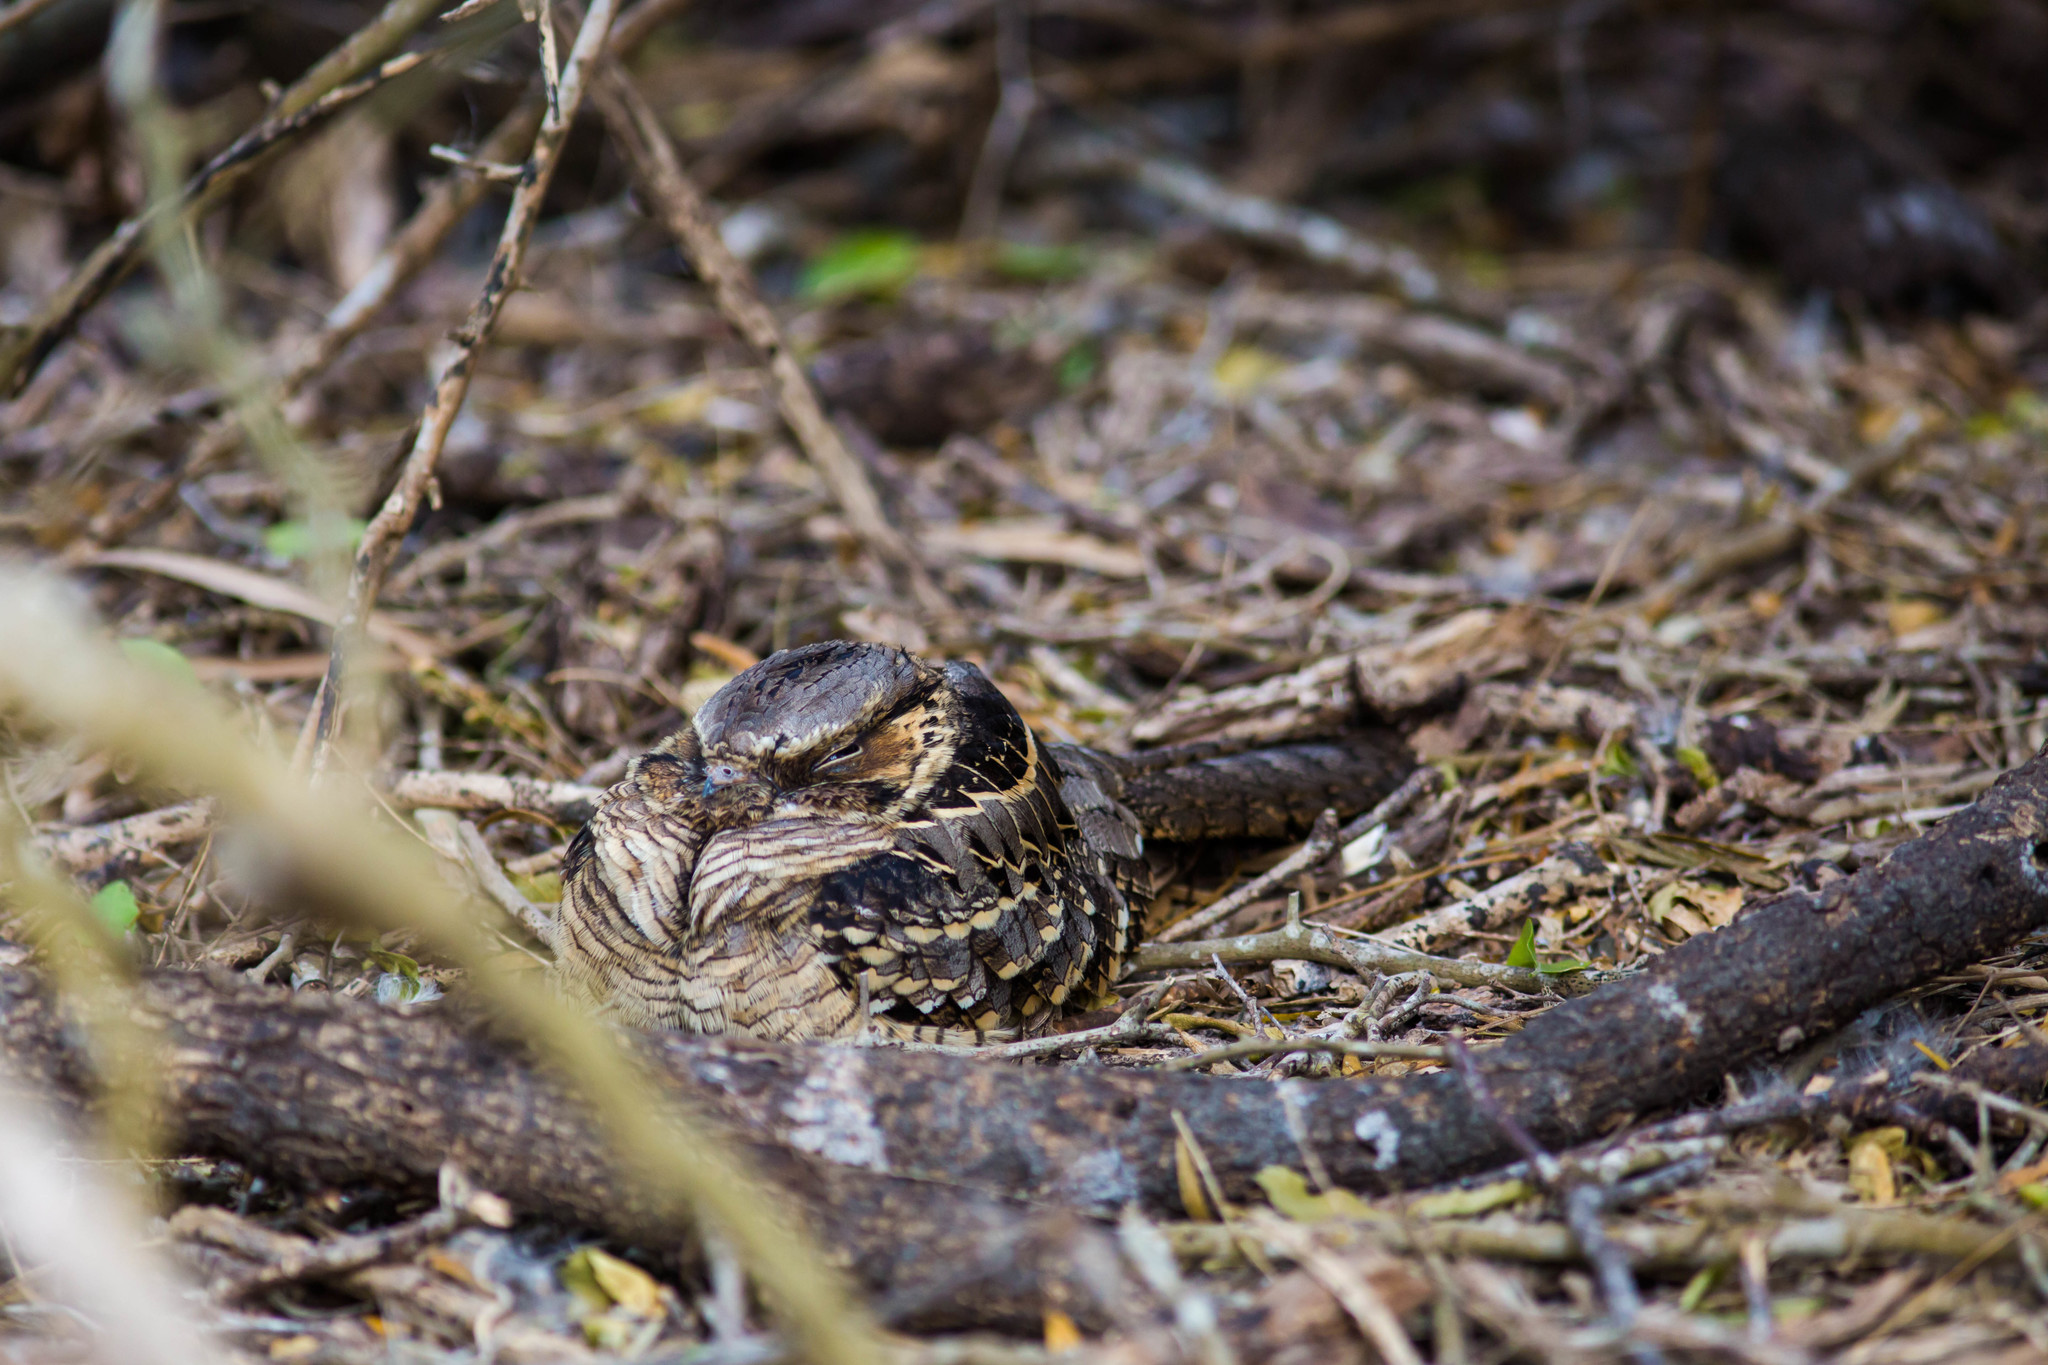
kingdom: Animalia
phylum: Chordata
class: Aves
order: Caprimulgiformes
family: Caprimulgidae
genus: Nyctidromus
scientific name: Nyctidromus albicollis
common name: Pauraque
